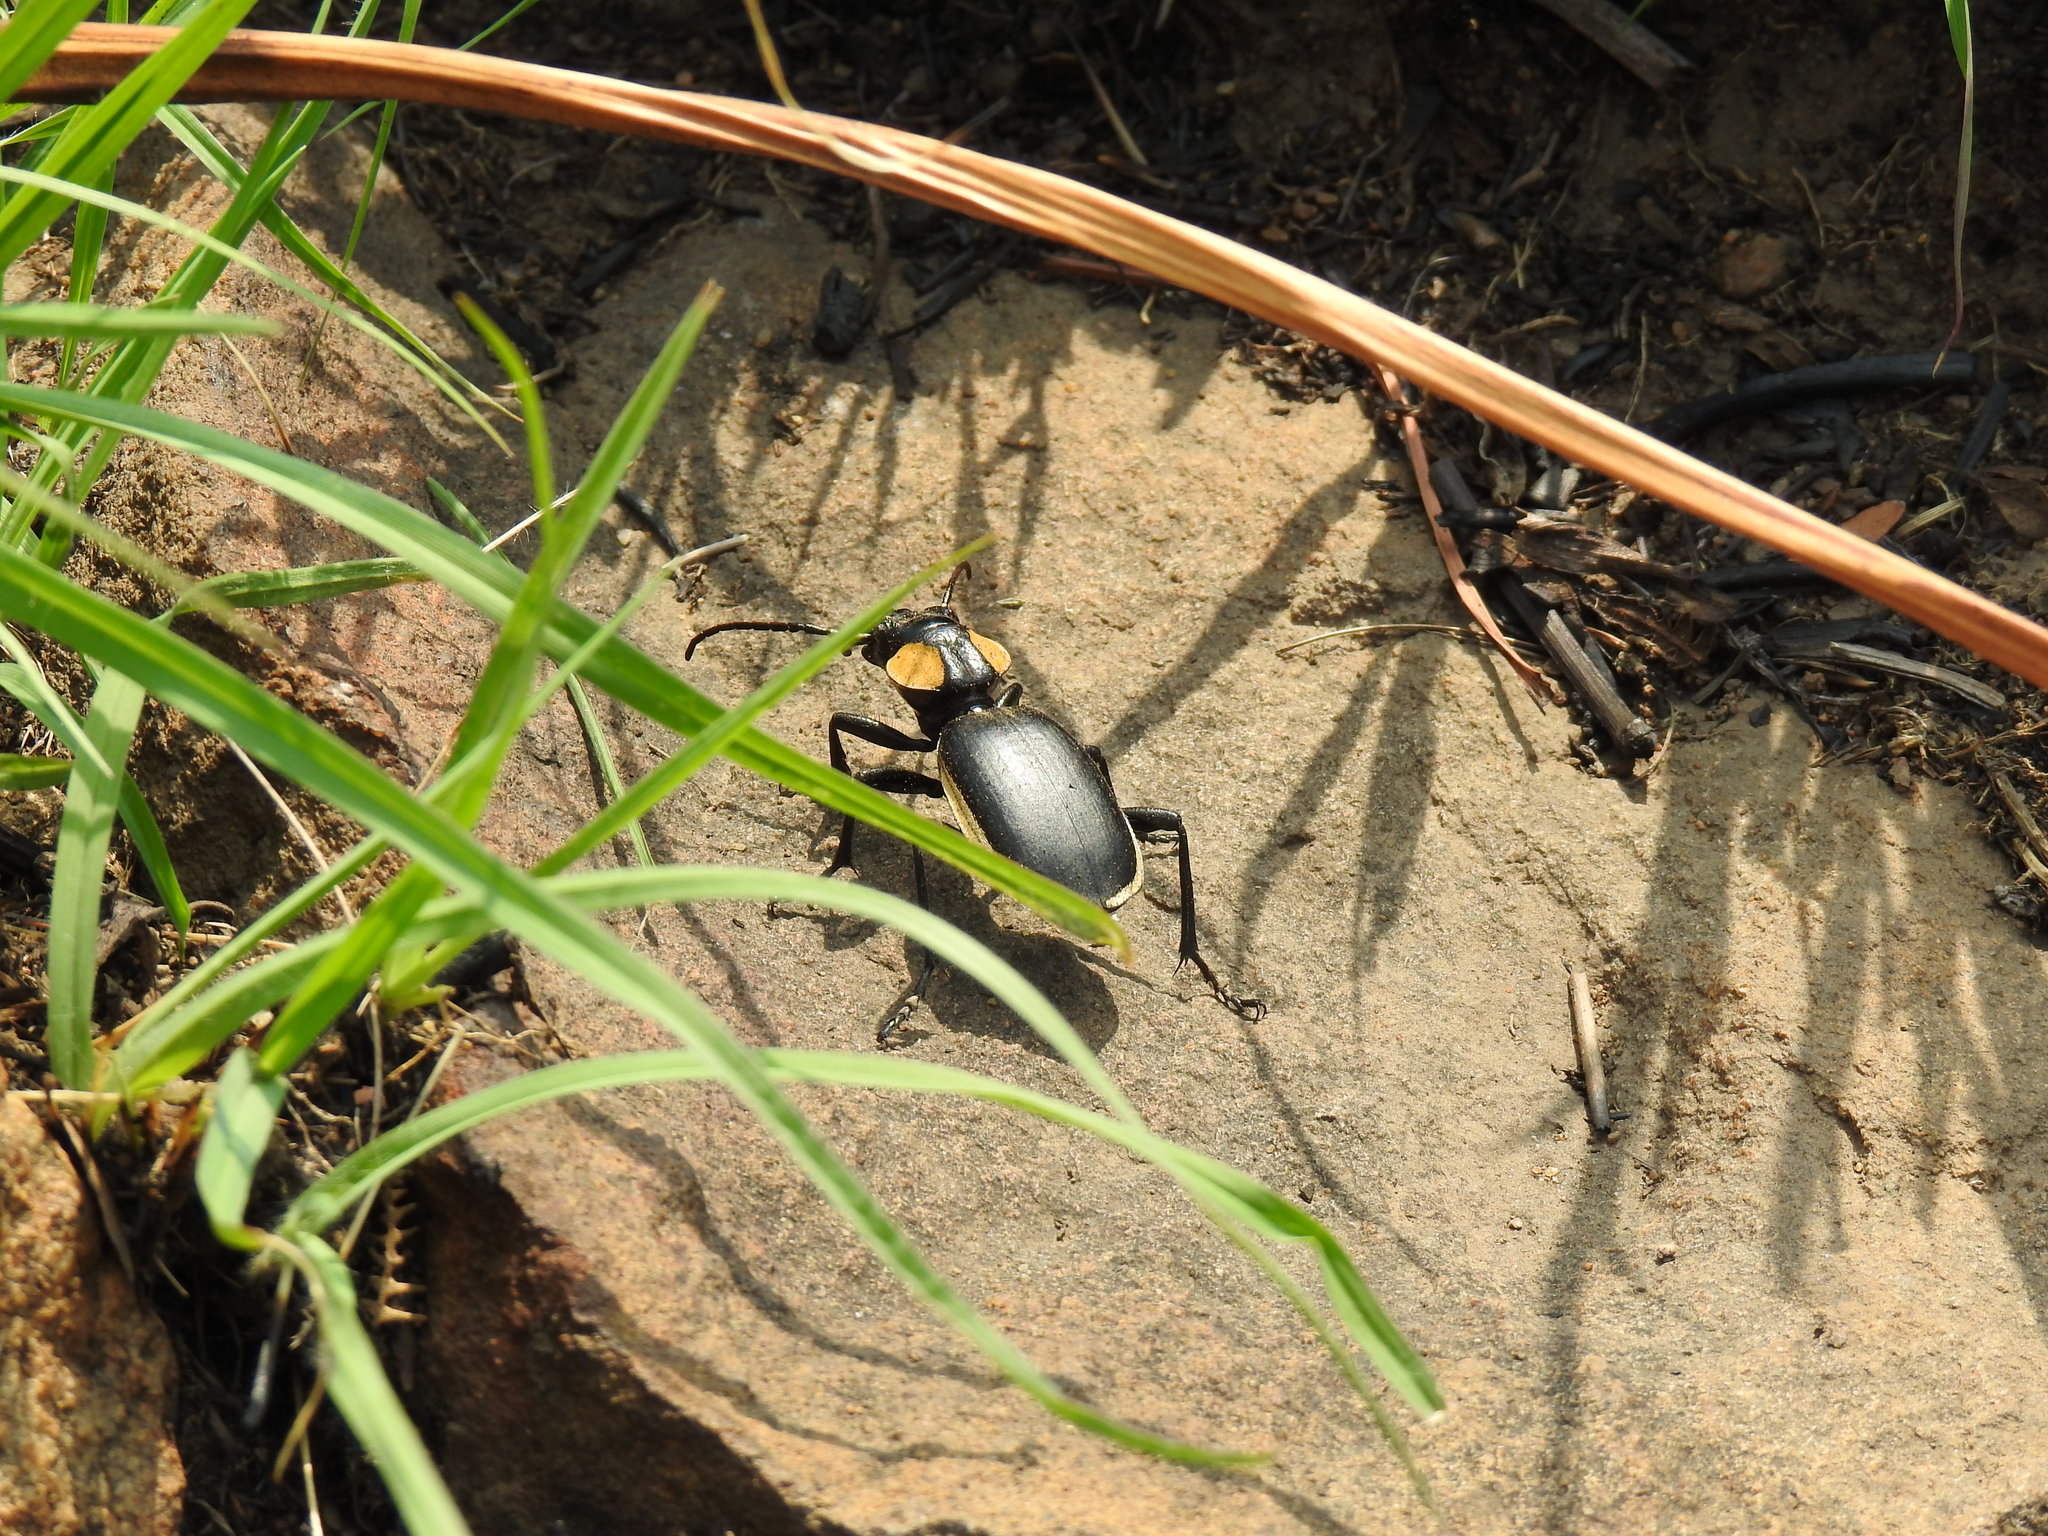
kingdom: Animalia
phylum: Arthropoda
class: Insecta
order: Coleoptera
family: Carabidae
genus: Anthia
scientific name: Anthia thoracica
